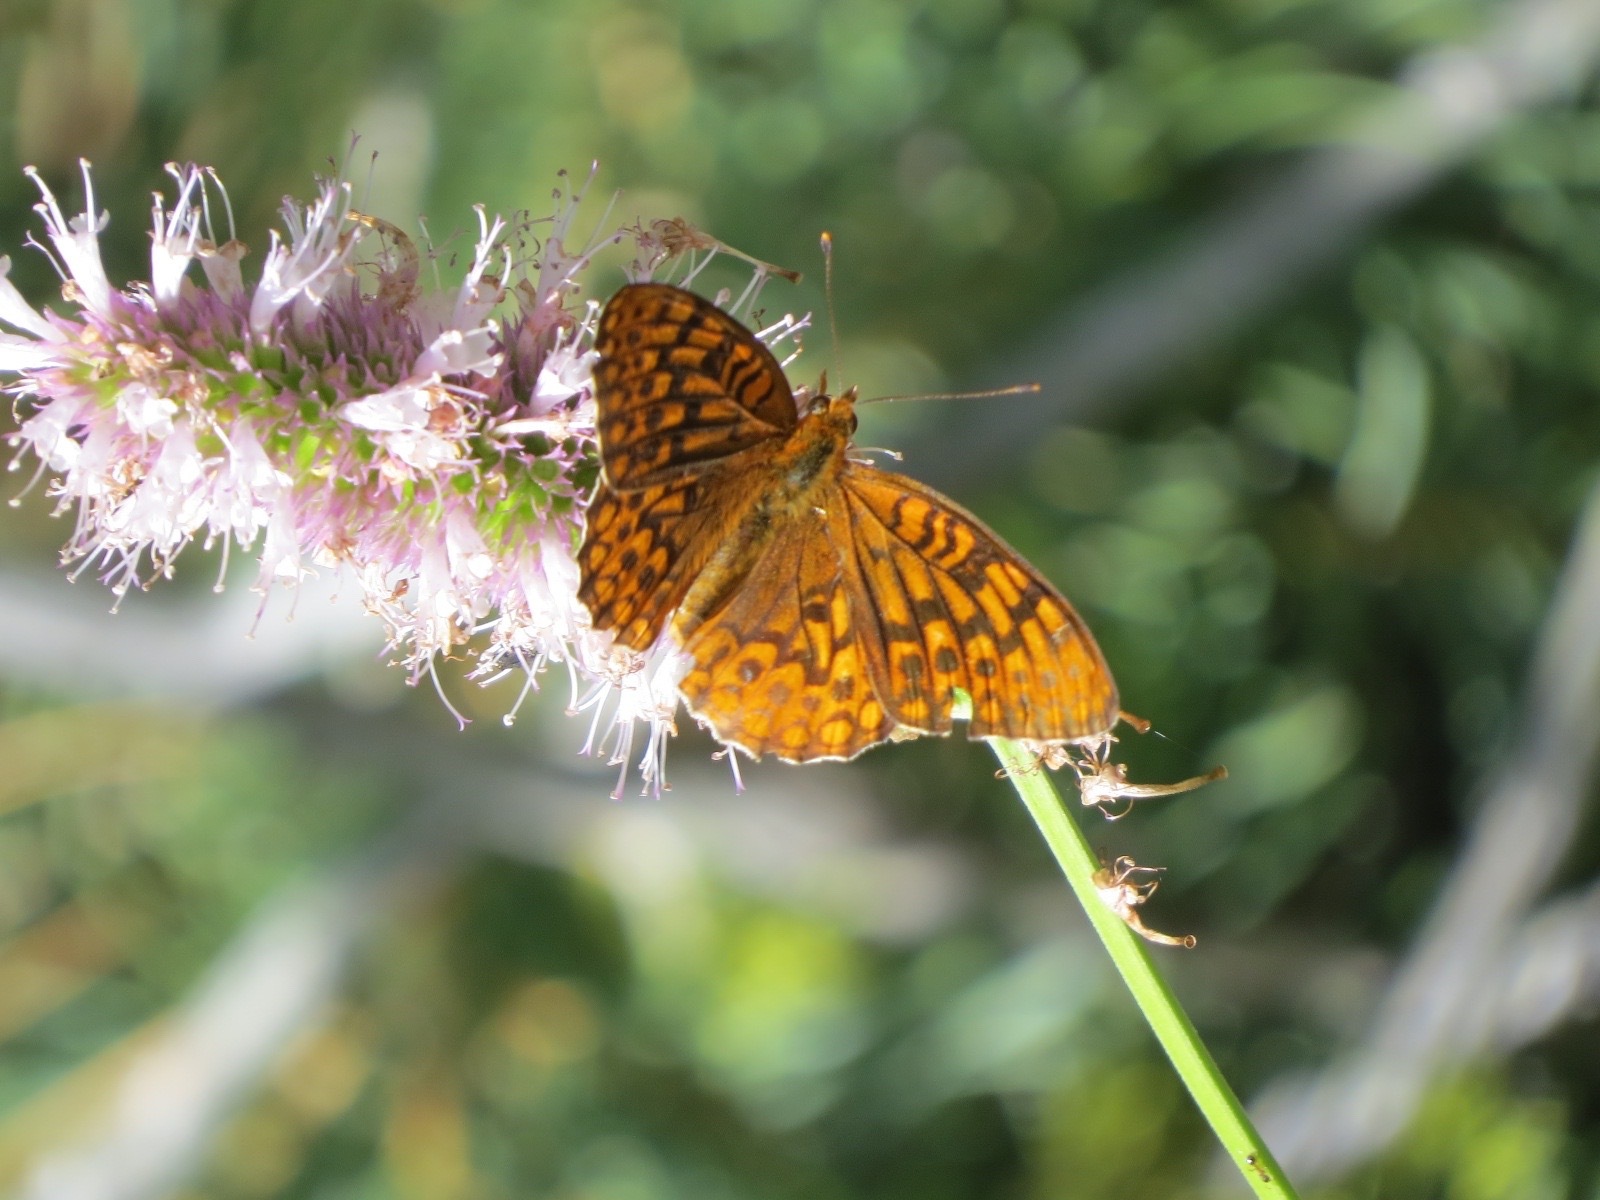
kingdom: Animalia
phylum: Arthropoda
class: Insecta
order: Lepidoptera
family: Nymphalidae
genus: Speyeria
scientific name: Speyeria hydaspe
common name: Hydaspe fritillary
